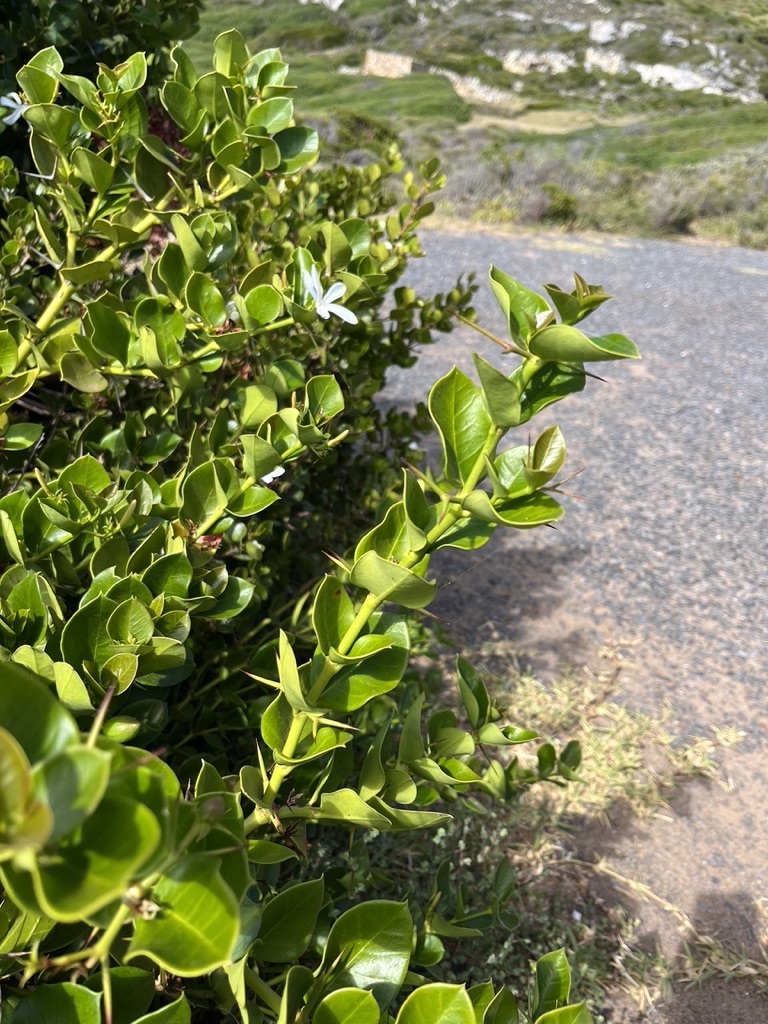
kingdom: Plantae
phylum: Tracheophyta
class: Magnoliopsida
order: Gentianales
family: Apocynaceae
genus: Carissa
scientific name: Carissa macrocarpa
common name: Natal plum
